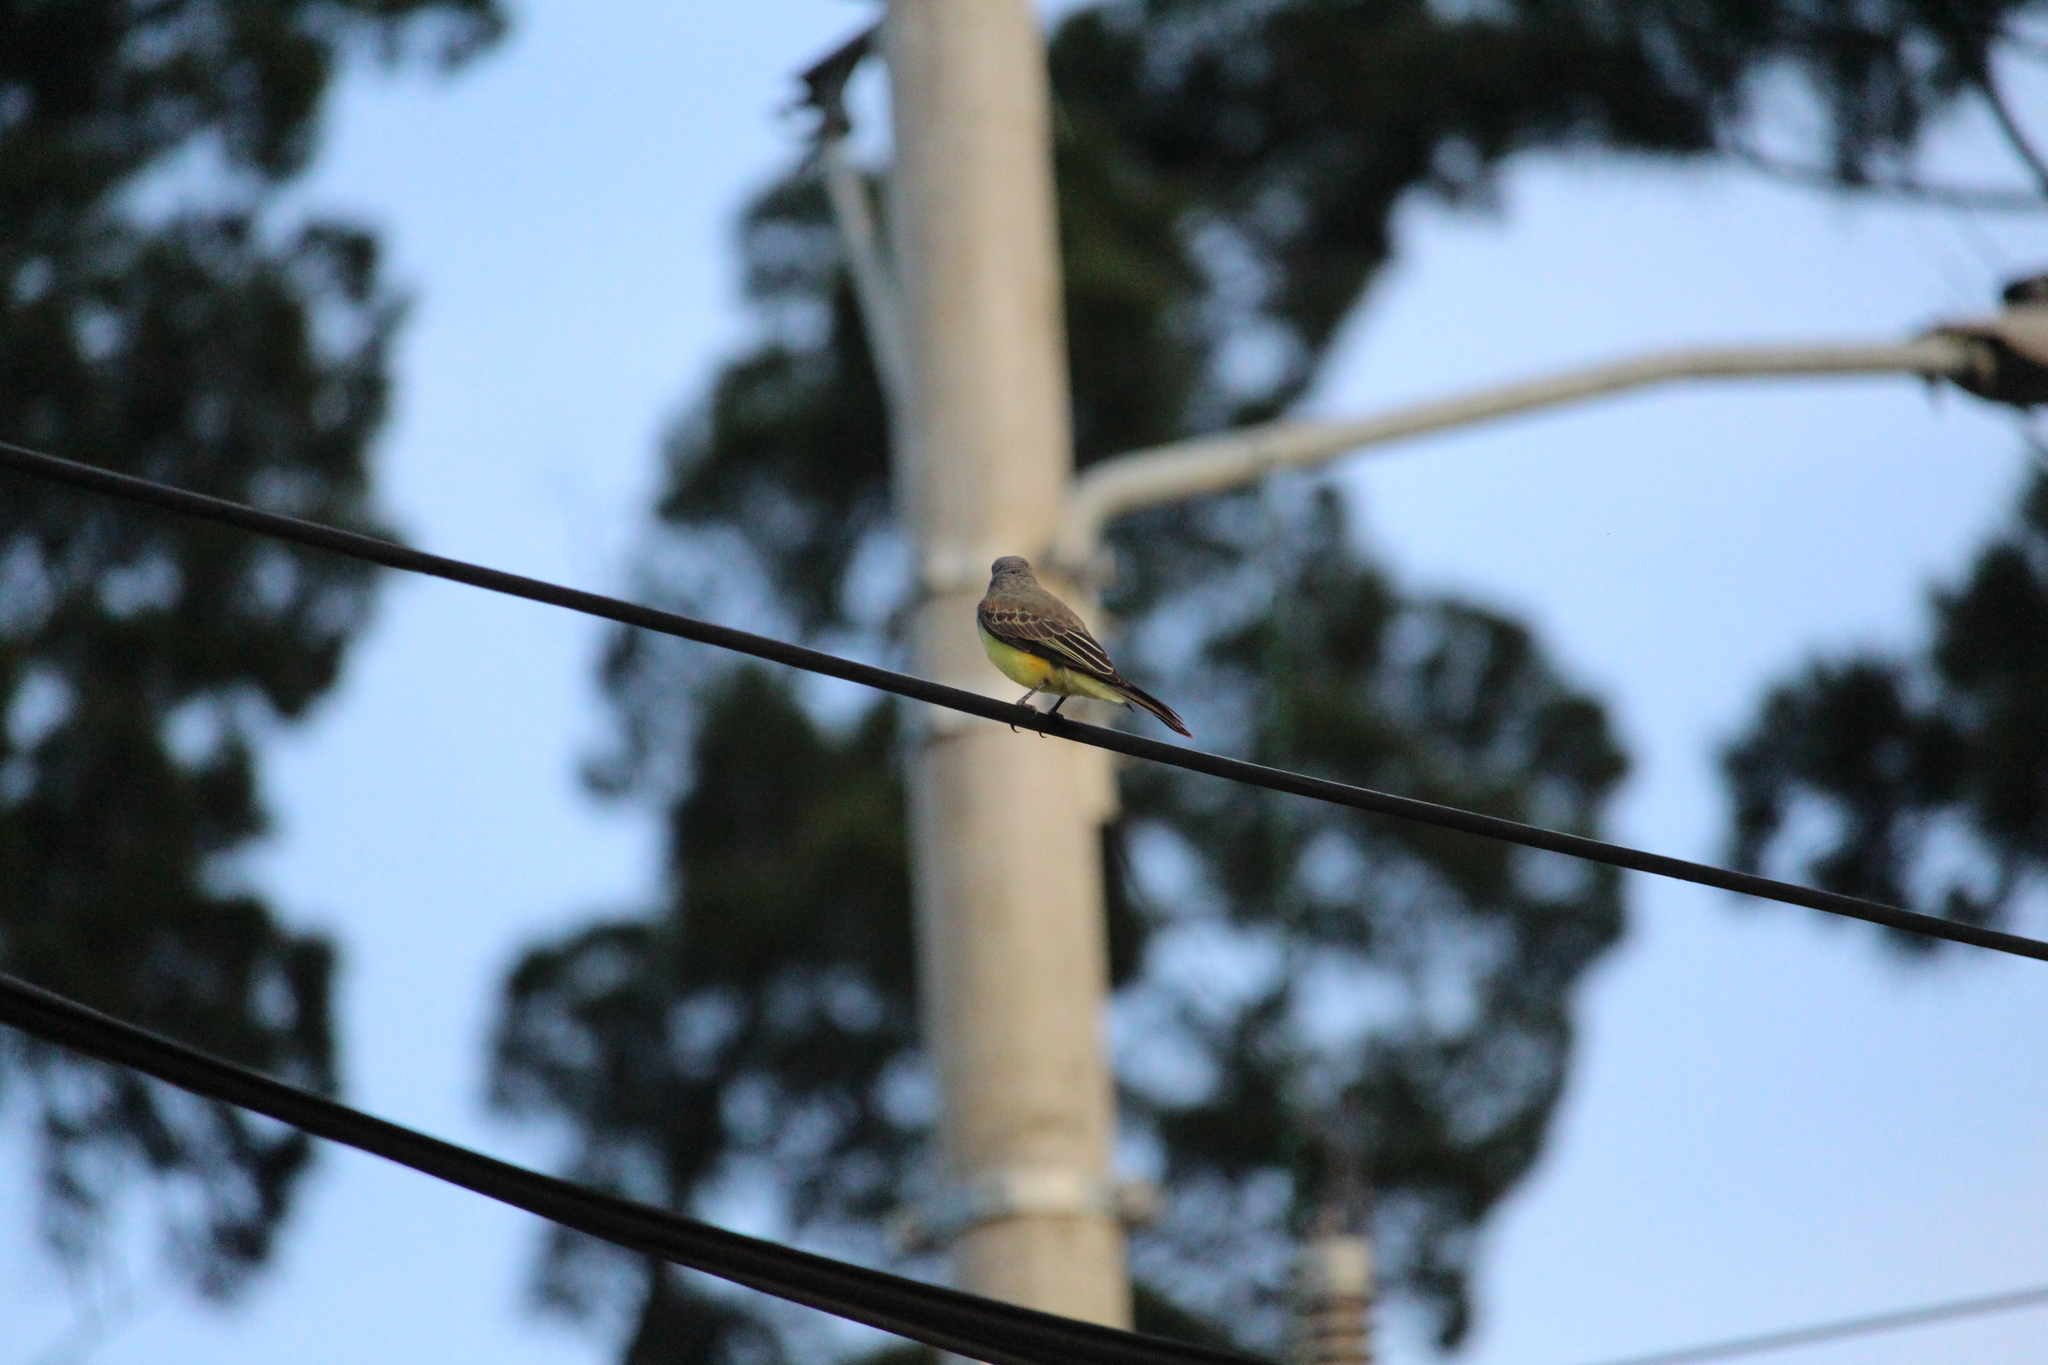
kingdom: Animalia
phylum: Chordata
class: Aves
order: Passeriformes
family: Tyrannidae
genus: Tyrannus
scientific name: Tyrannus melancholicus
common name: Tropical kingbird
